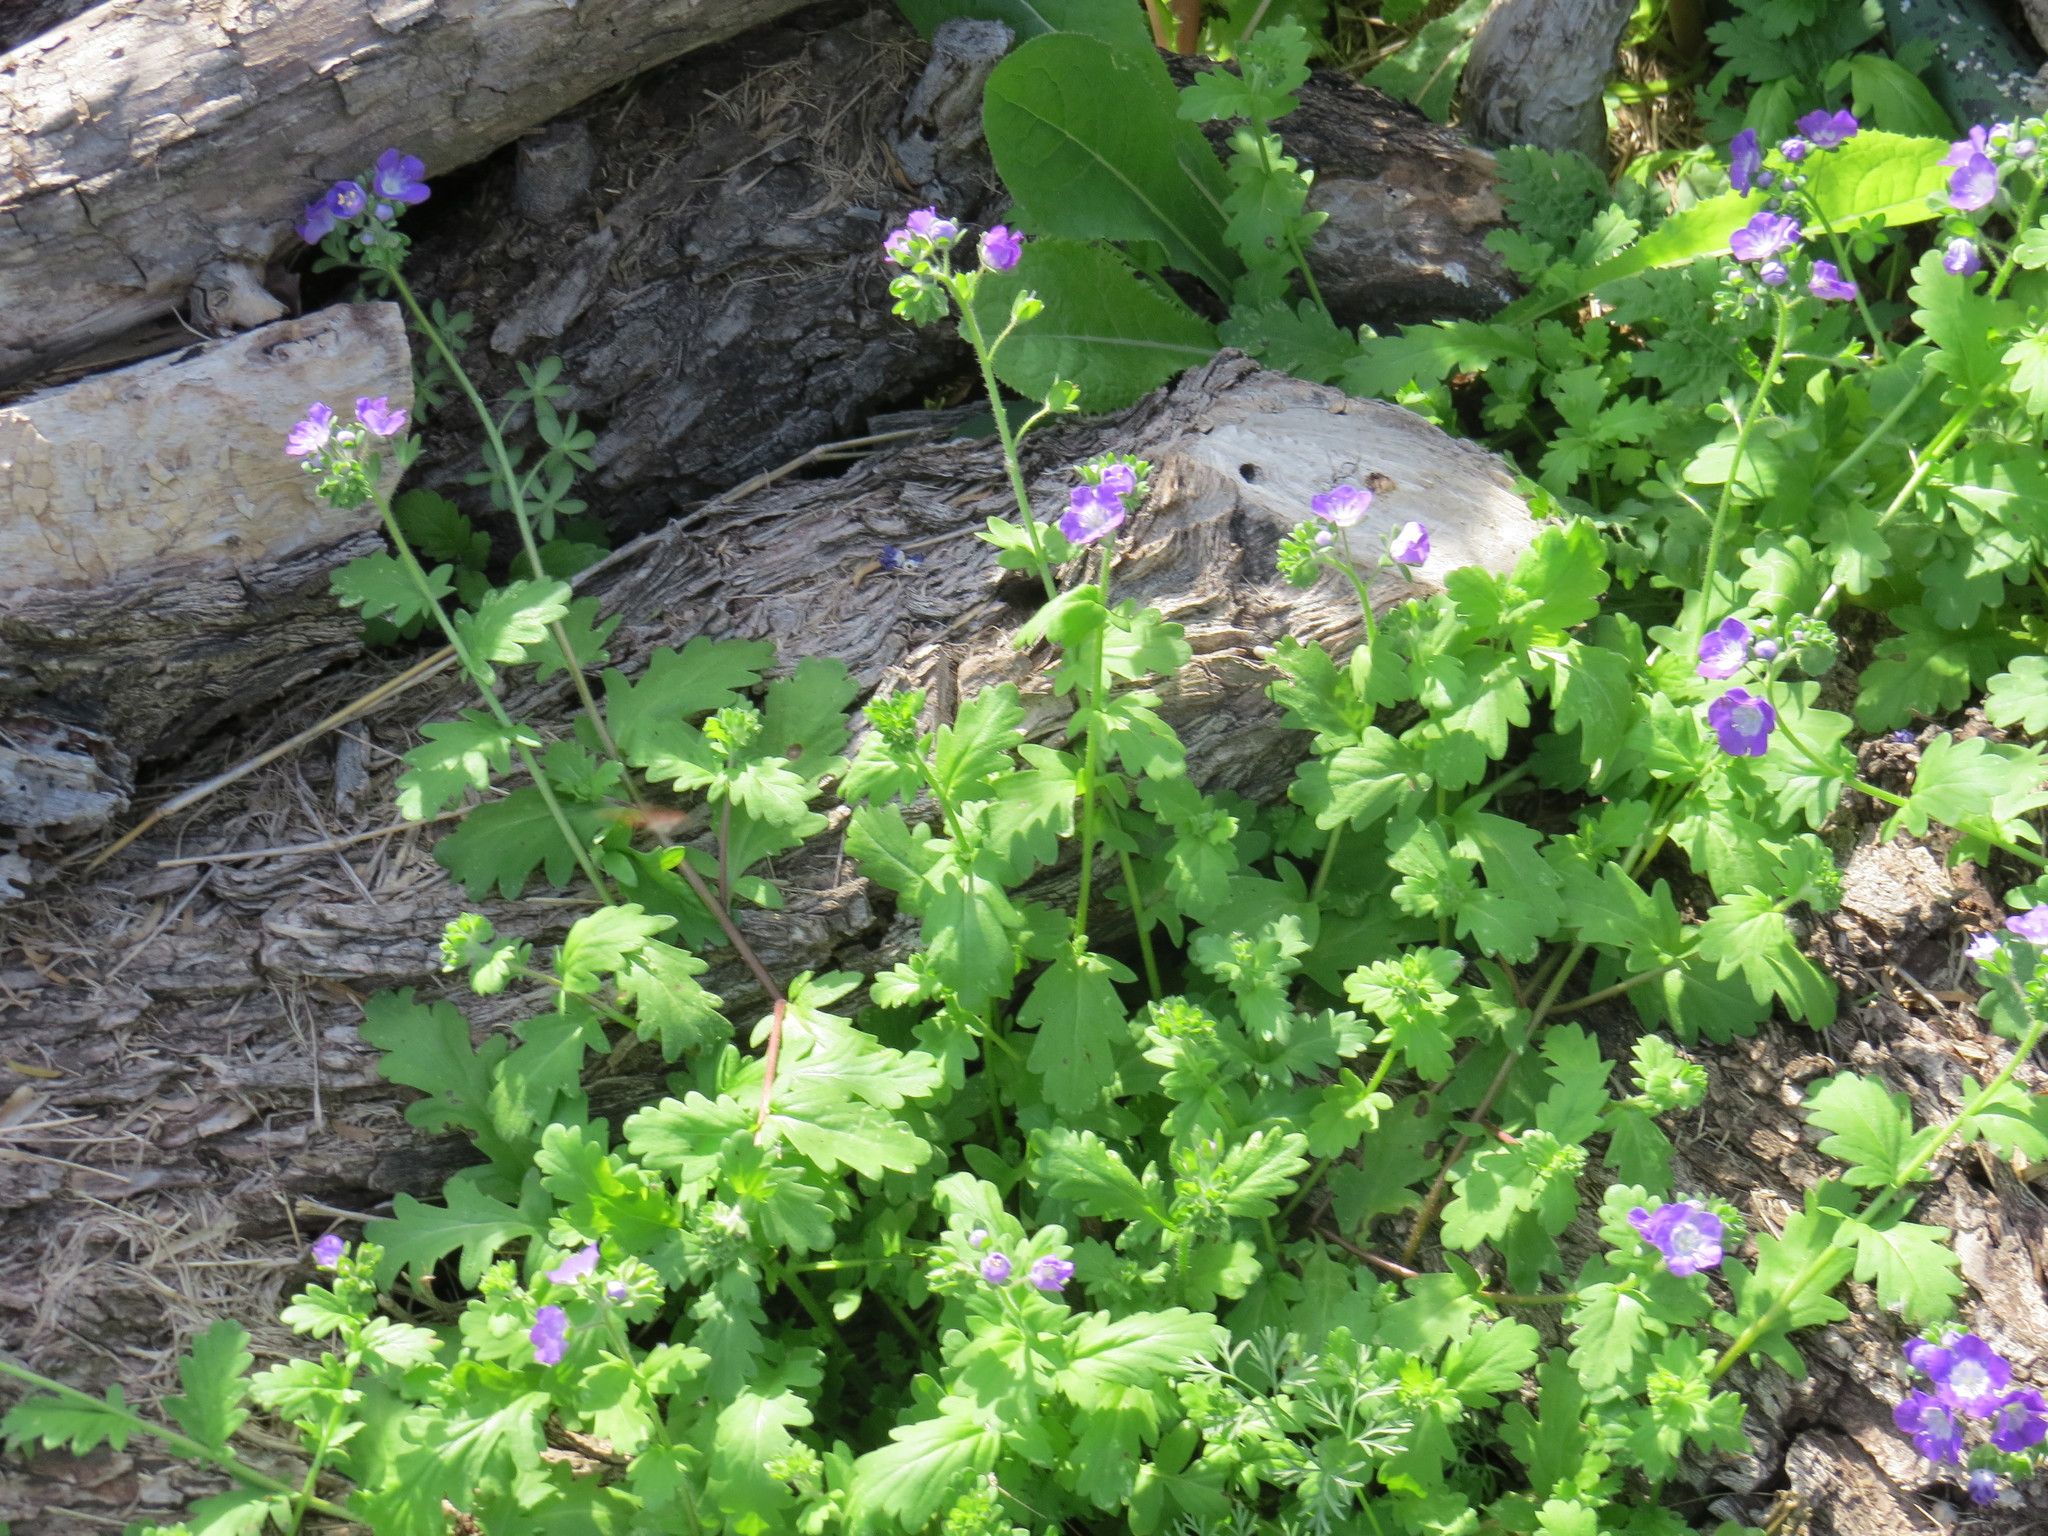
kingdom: Plantae
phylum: Tracheophyta
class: Magnoliopsida
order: Boraginales
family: Hydrophyllaceae
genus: Phacelia
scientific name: Phacelia austrotexana
